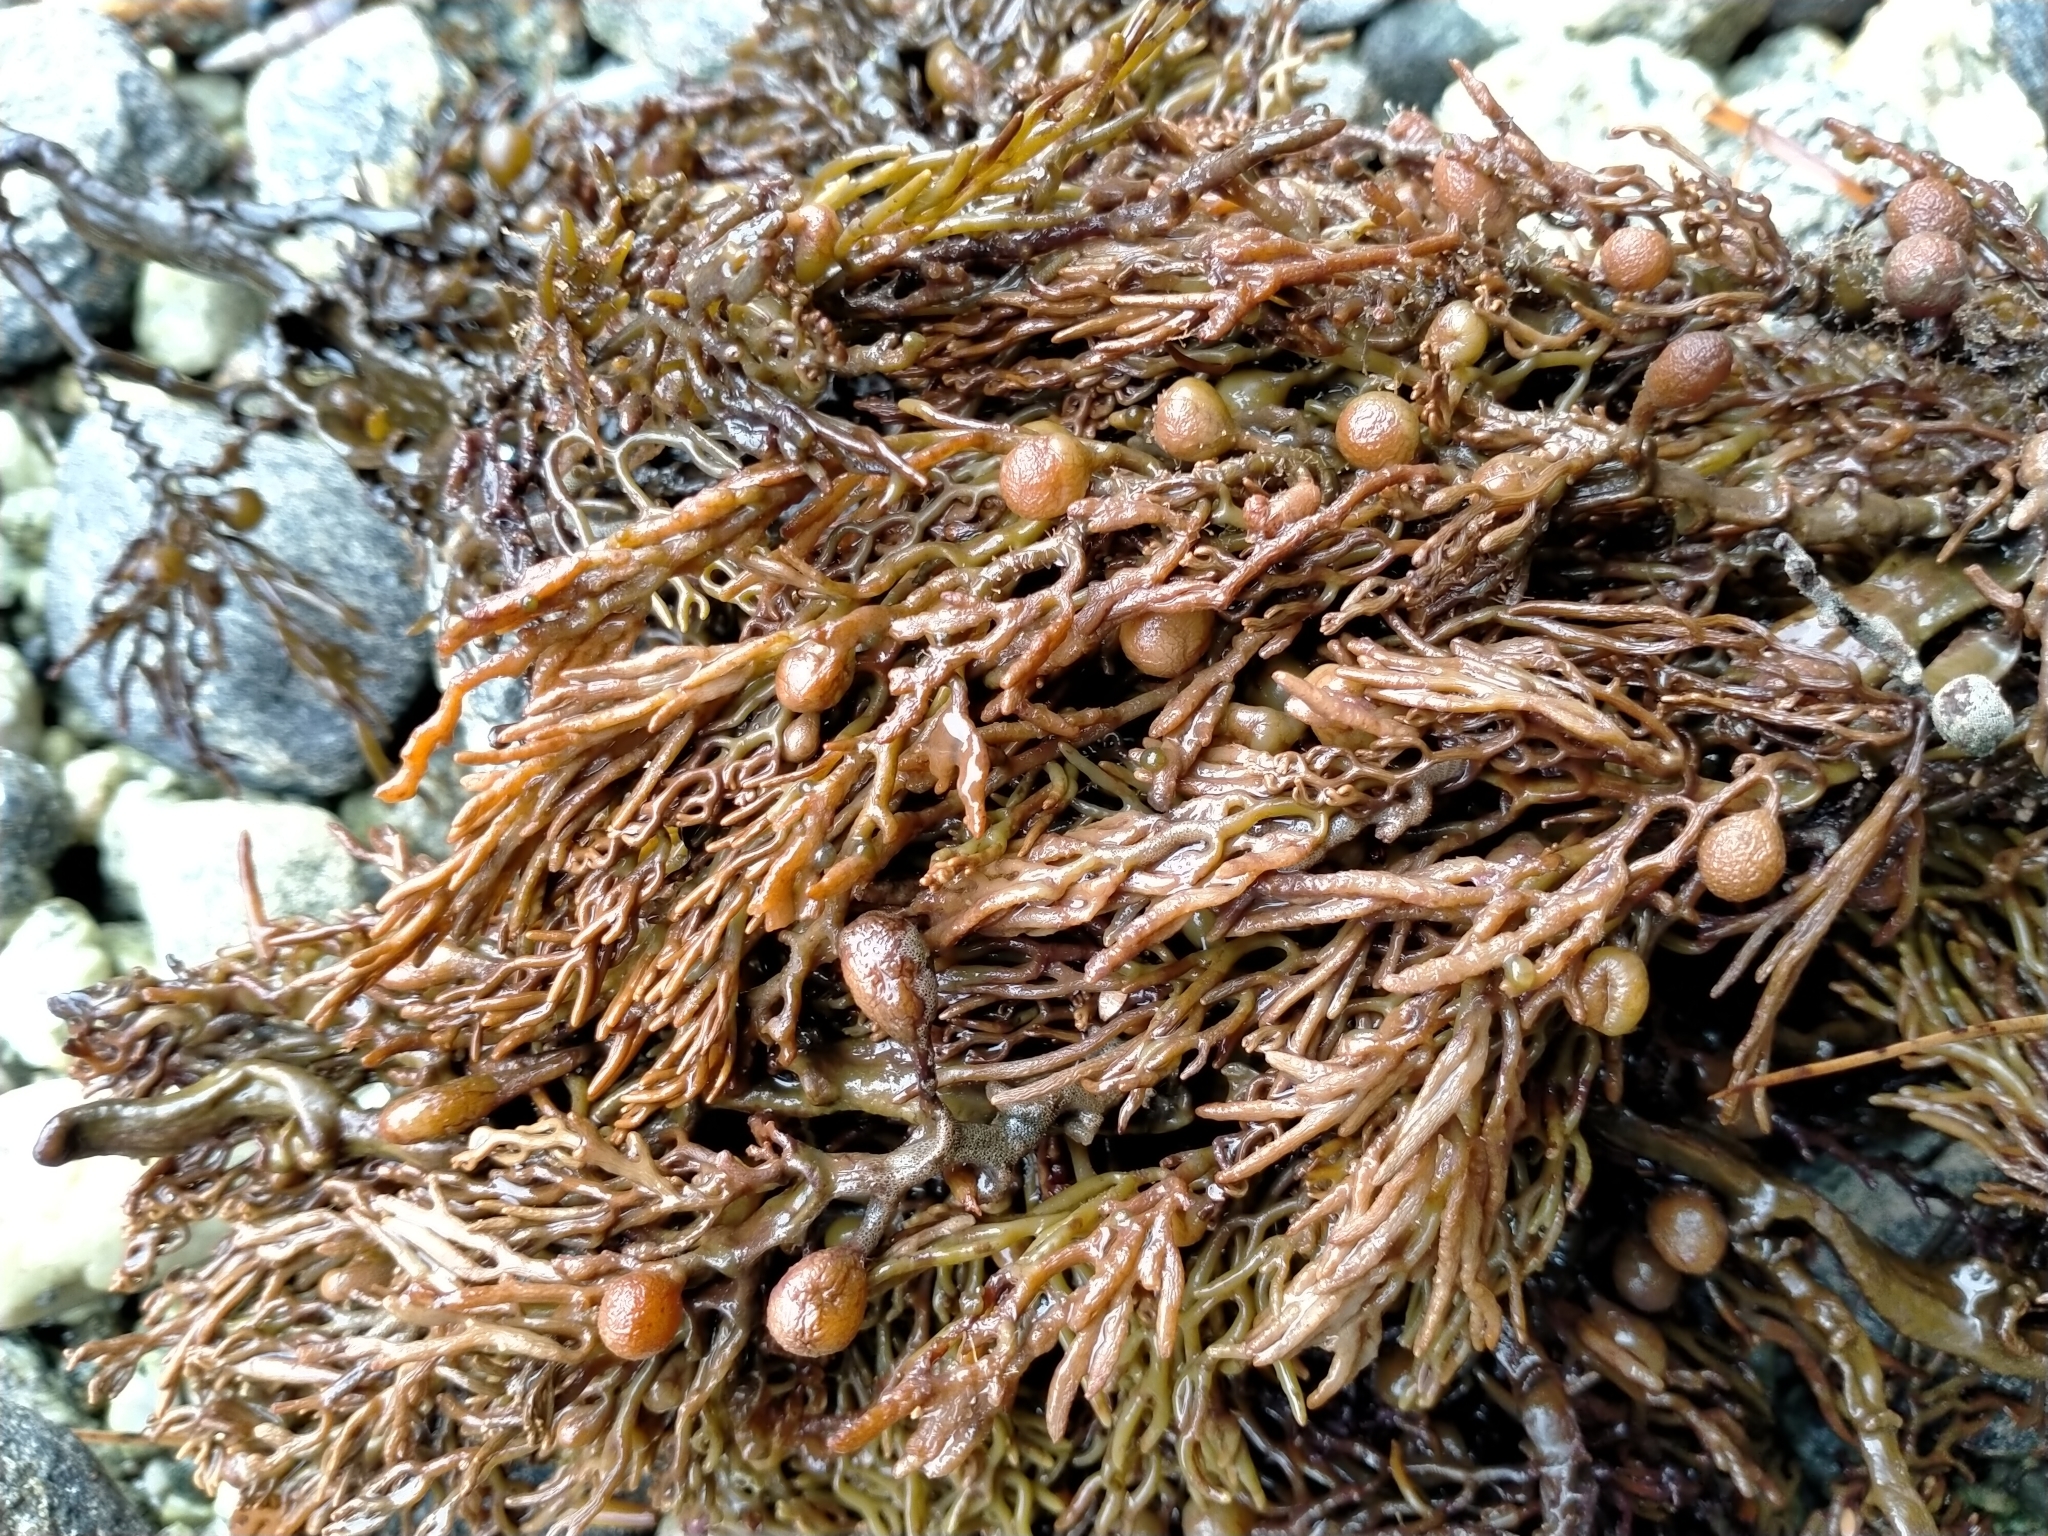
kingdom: Chromista
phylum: Ochrophyta
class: Phaeophyceae
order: Fucales
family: Sargassaceae
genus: Cystophora
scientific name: Cystophora retroflexa
